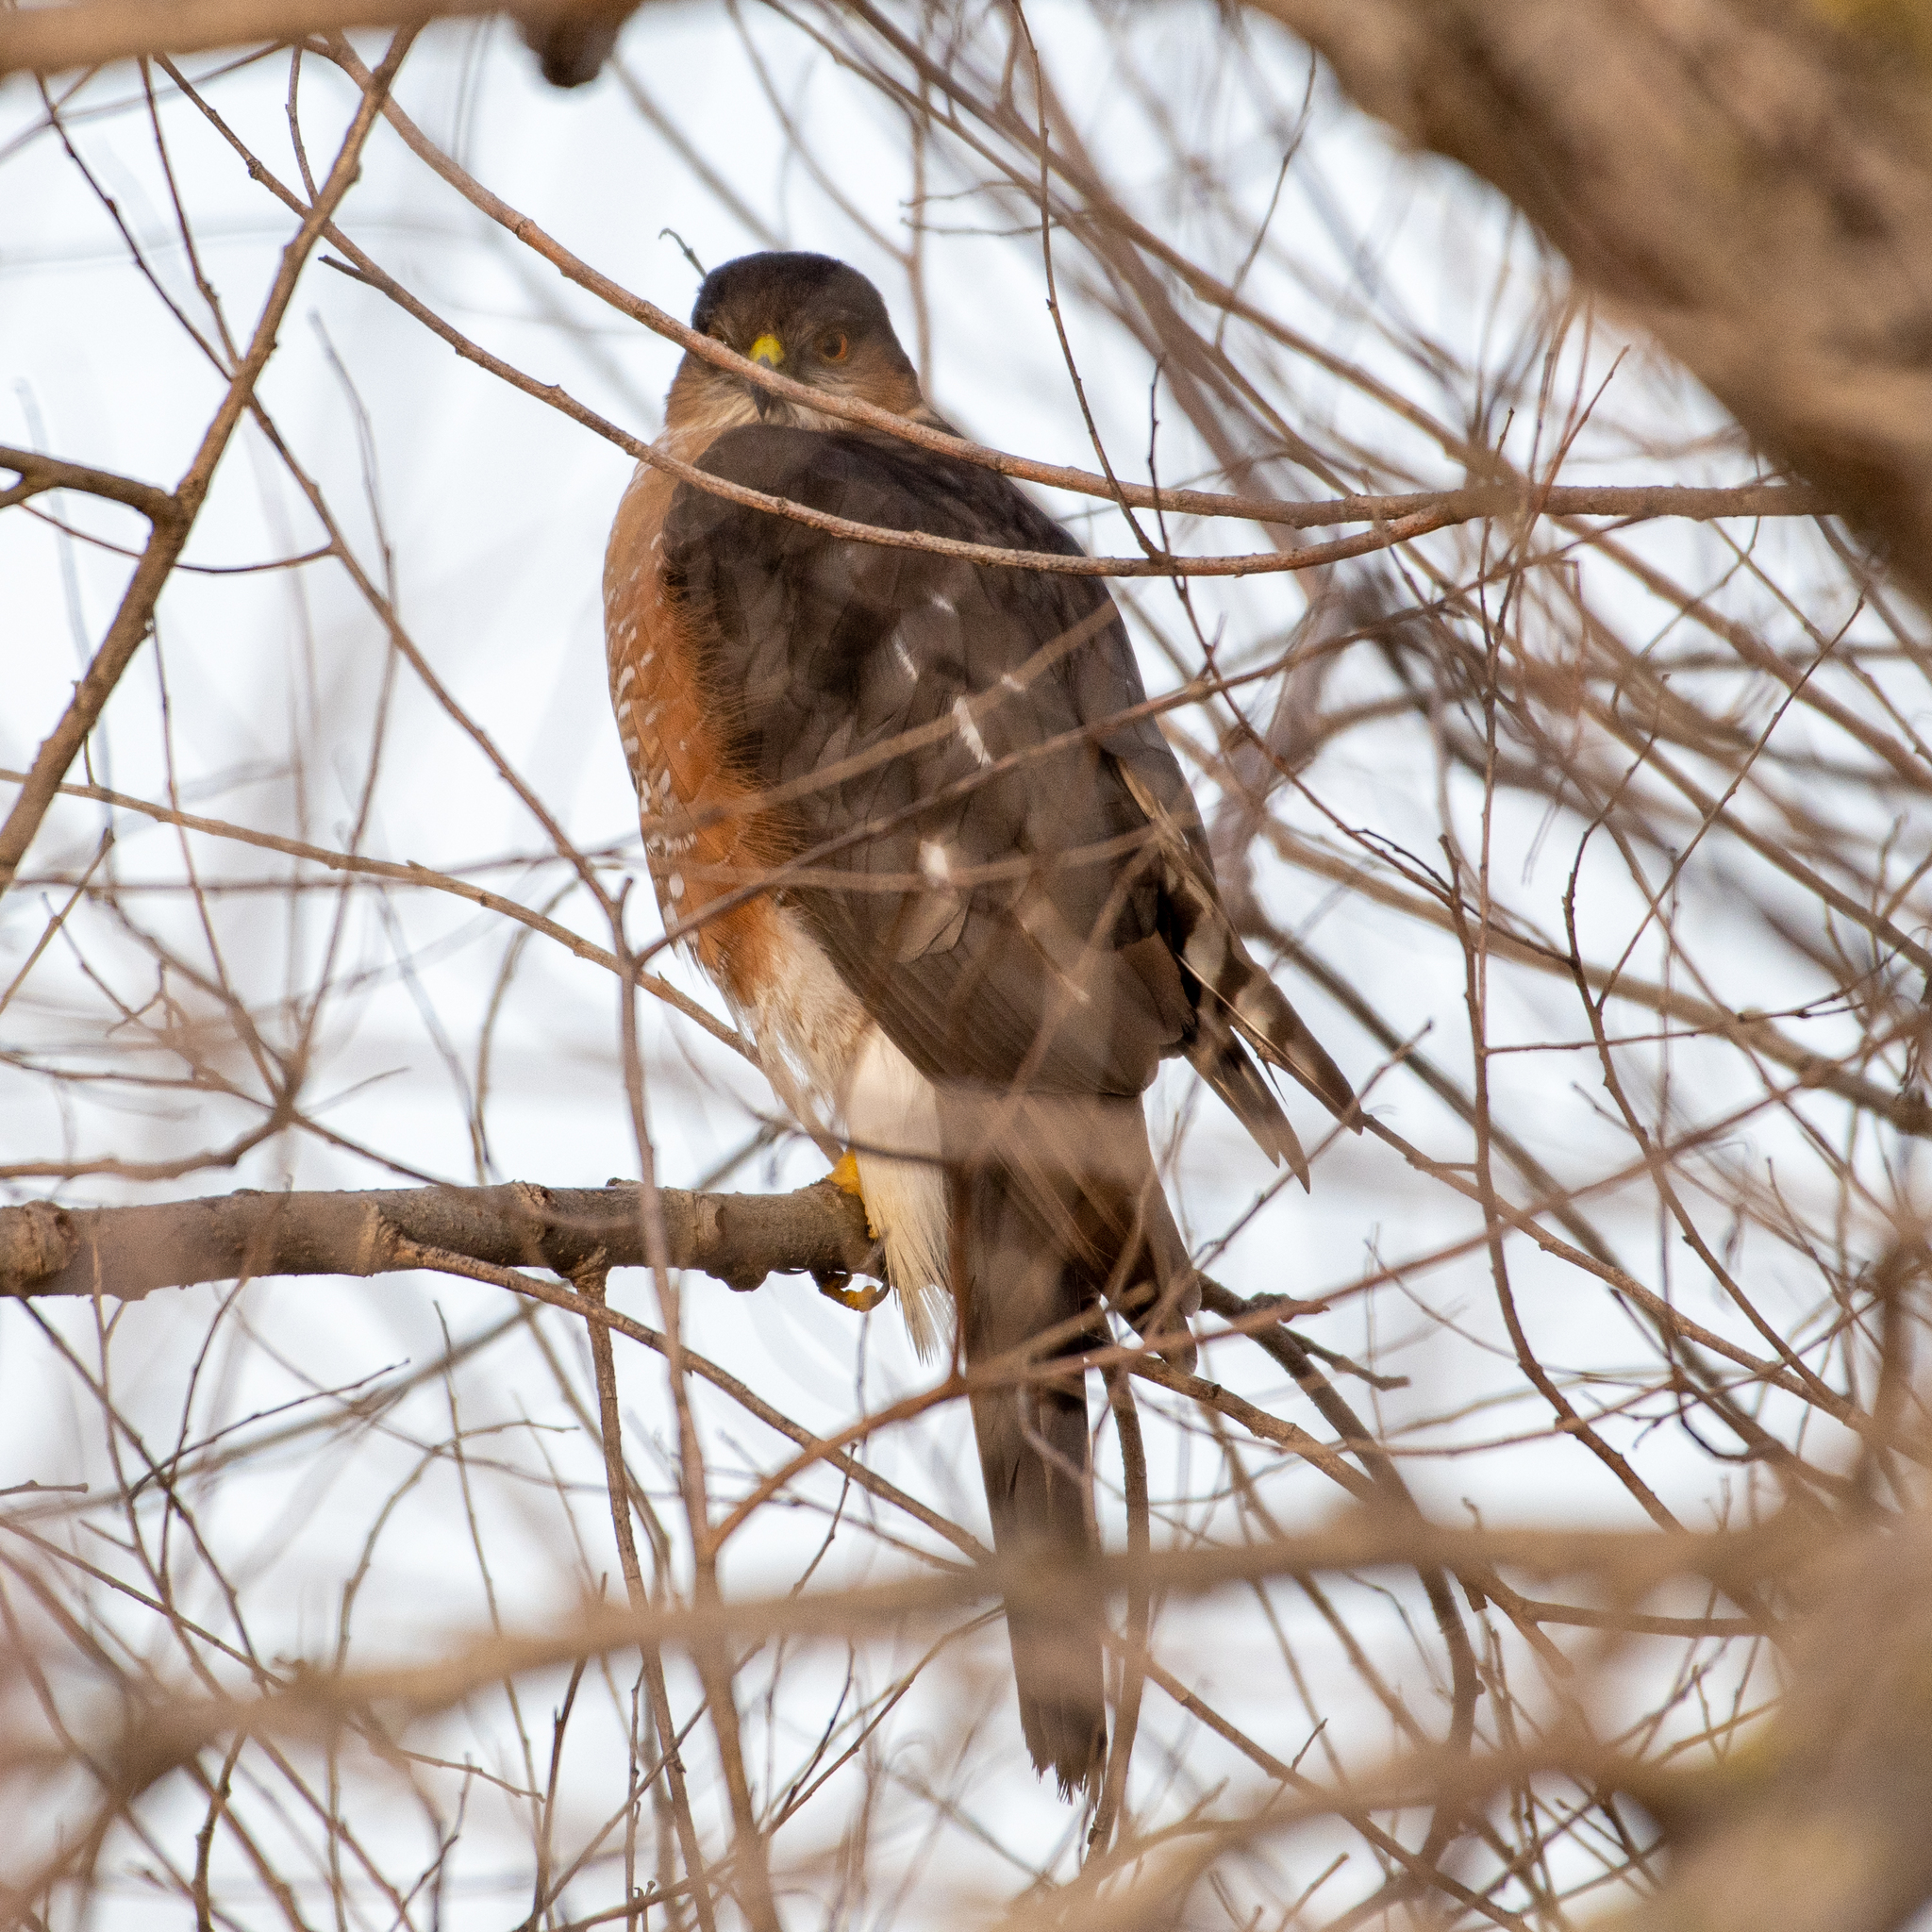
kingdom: Animalia
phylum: Chordata
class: Aves
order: Accipitriformes
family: Accipitridae
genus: Accipiter
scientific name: Accipiter striatus
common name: Sharp-shinned hawk
